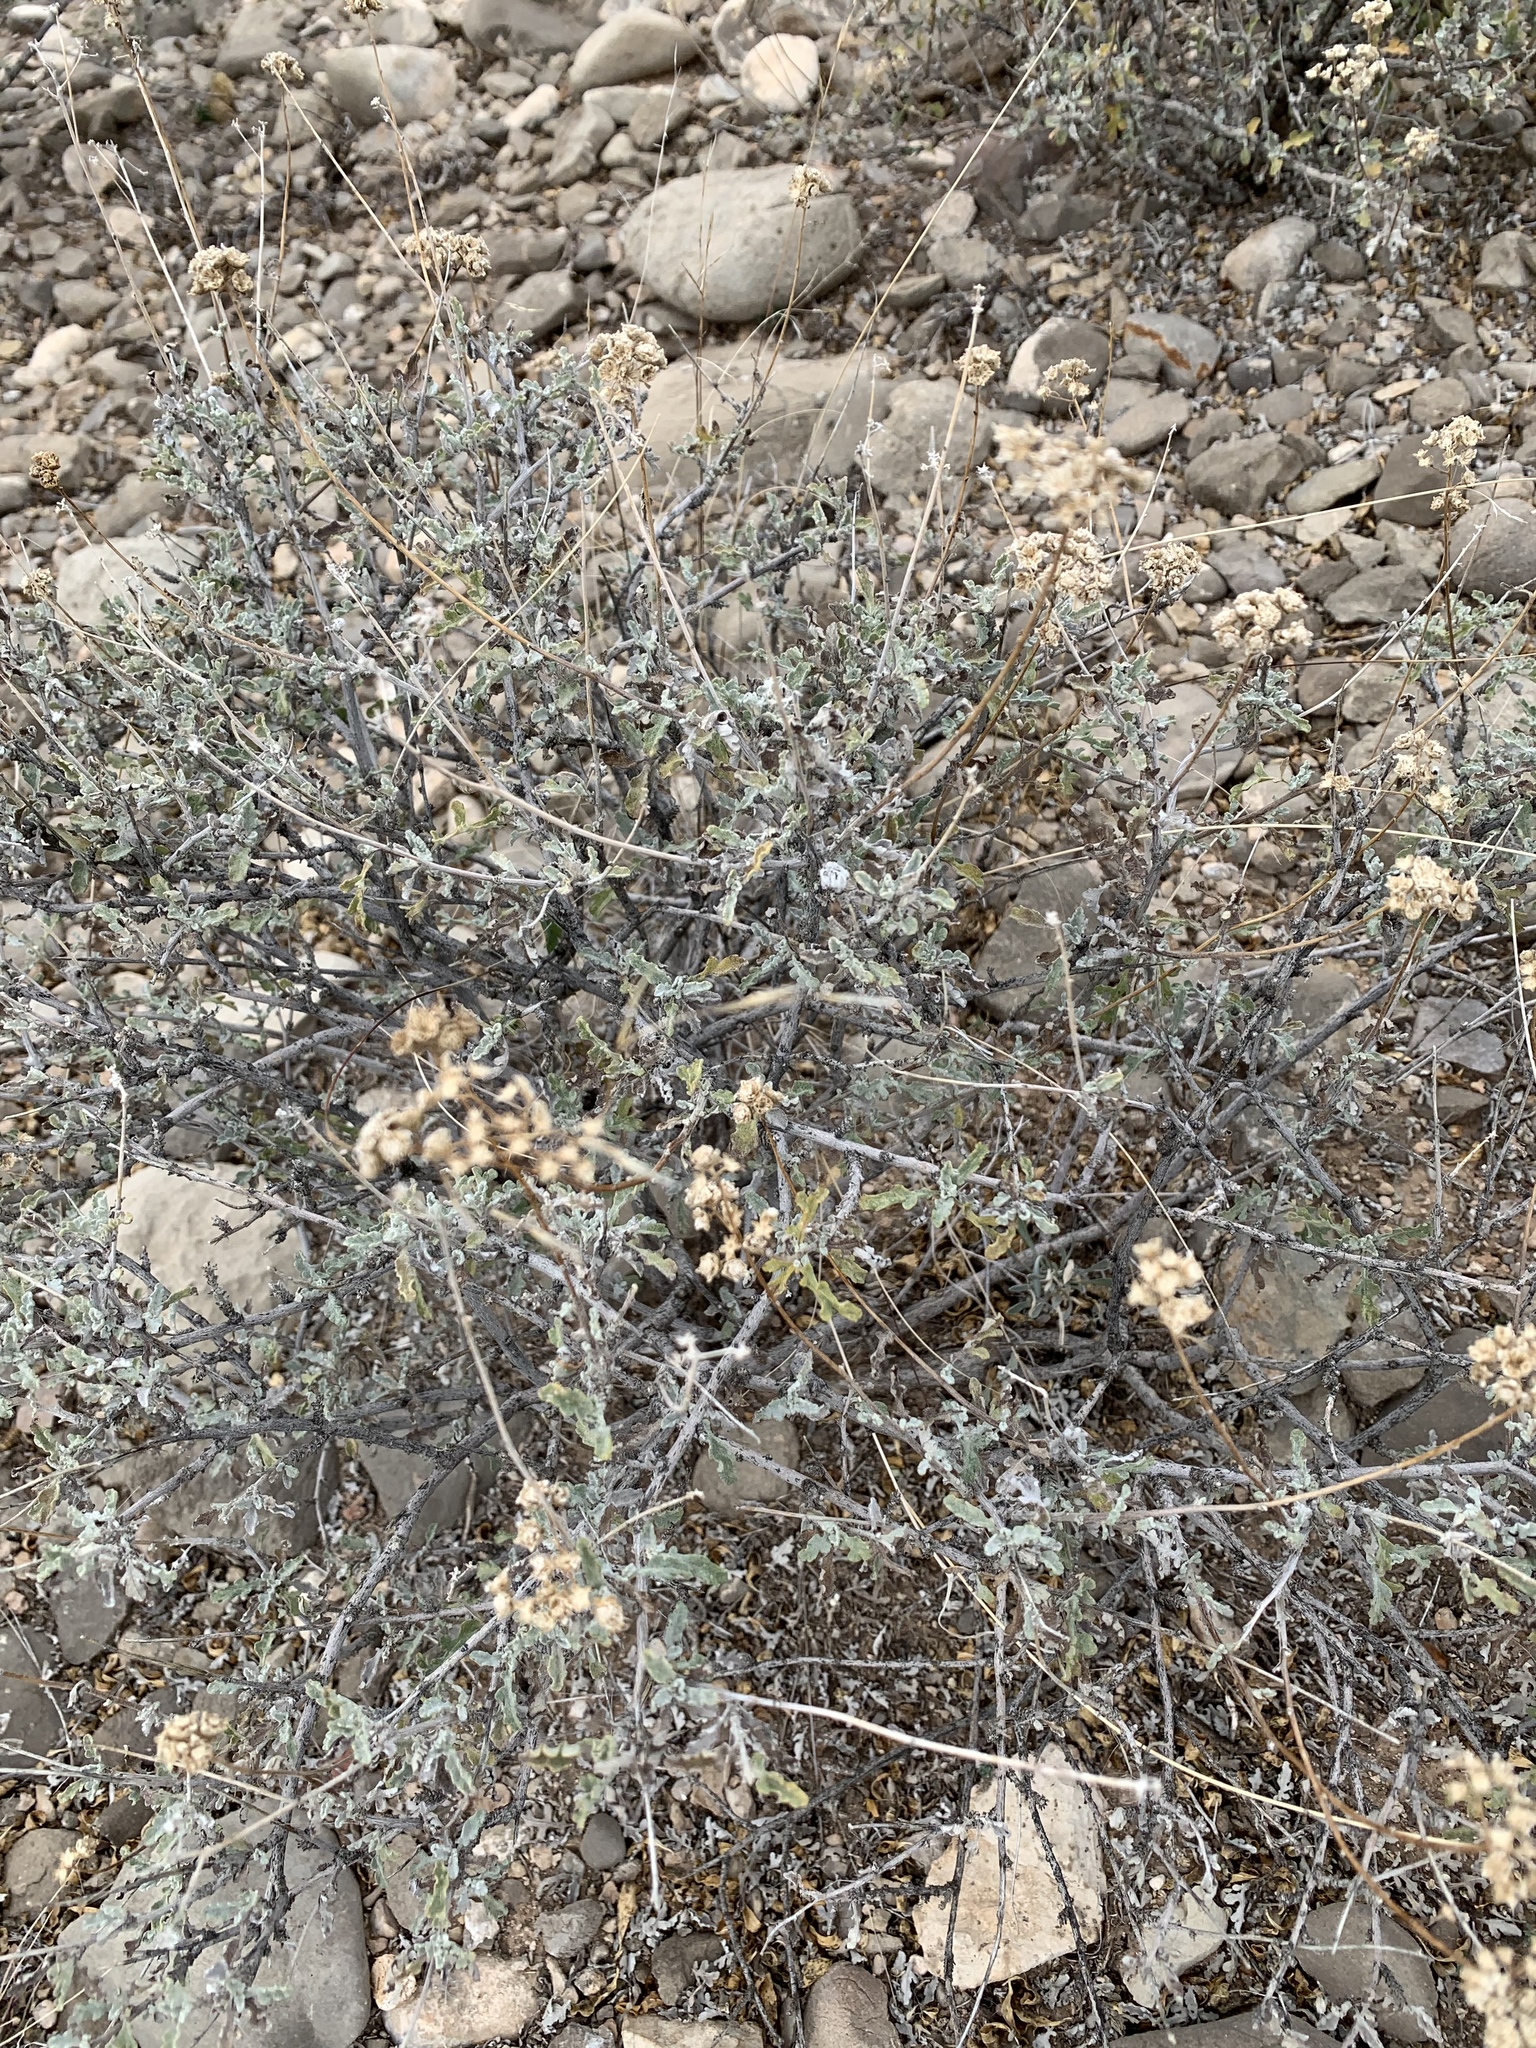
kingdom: Plantae
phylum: Tracheophyta
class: Magnoliopsida
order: Asterales
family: Asteraceae
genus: Parthenium
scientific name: Parthenium incanum
